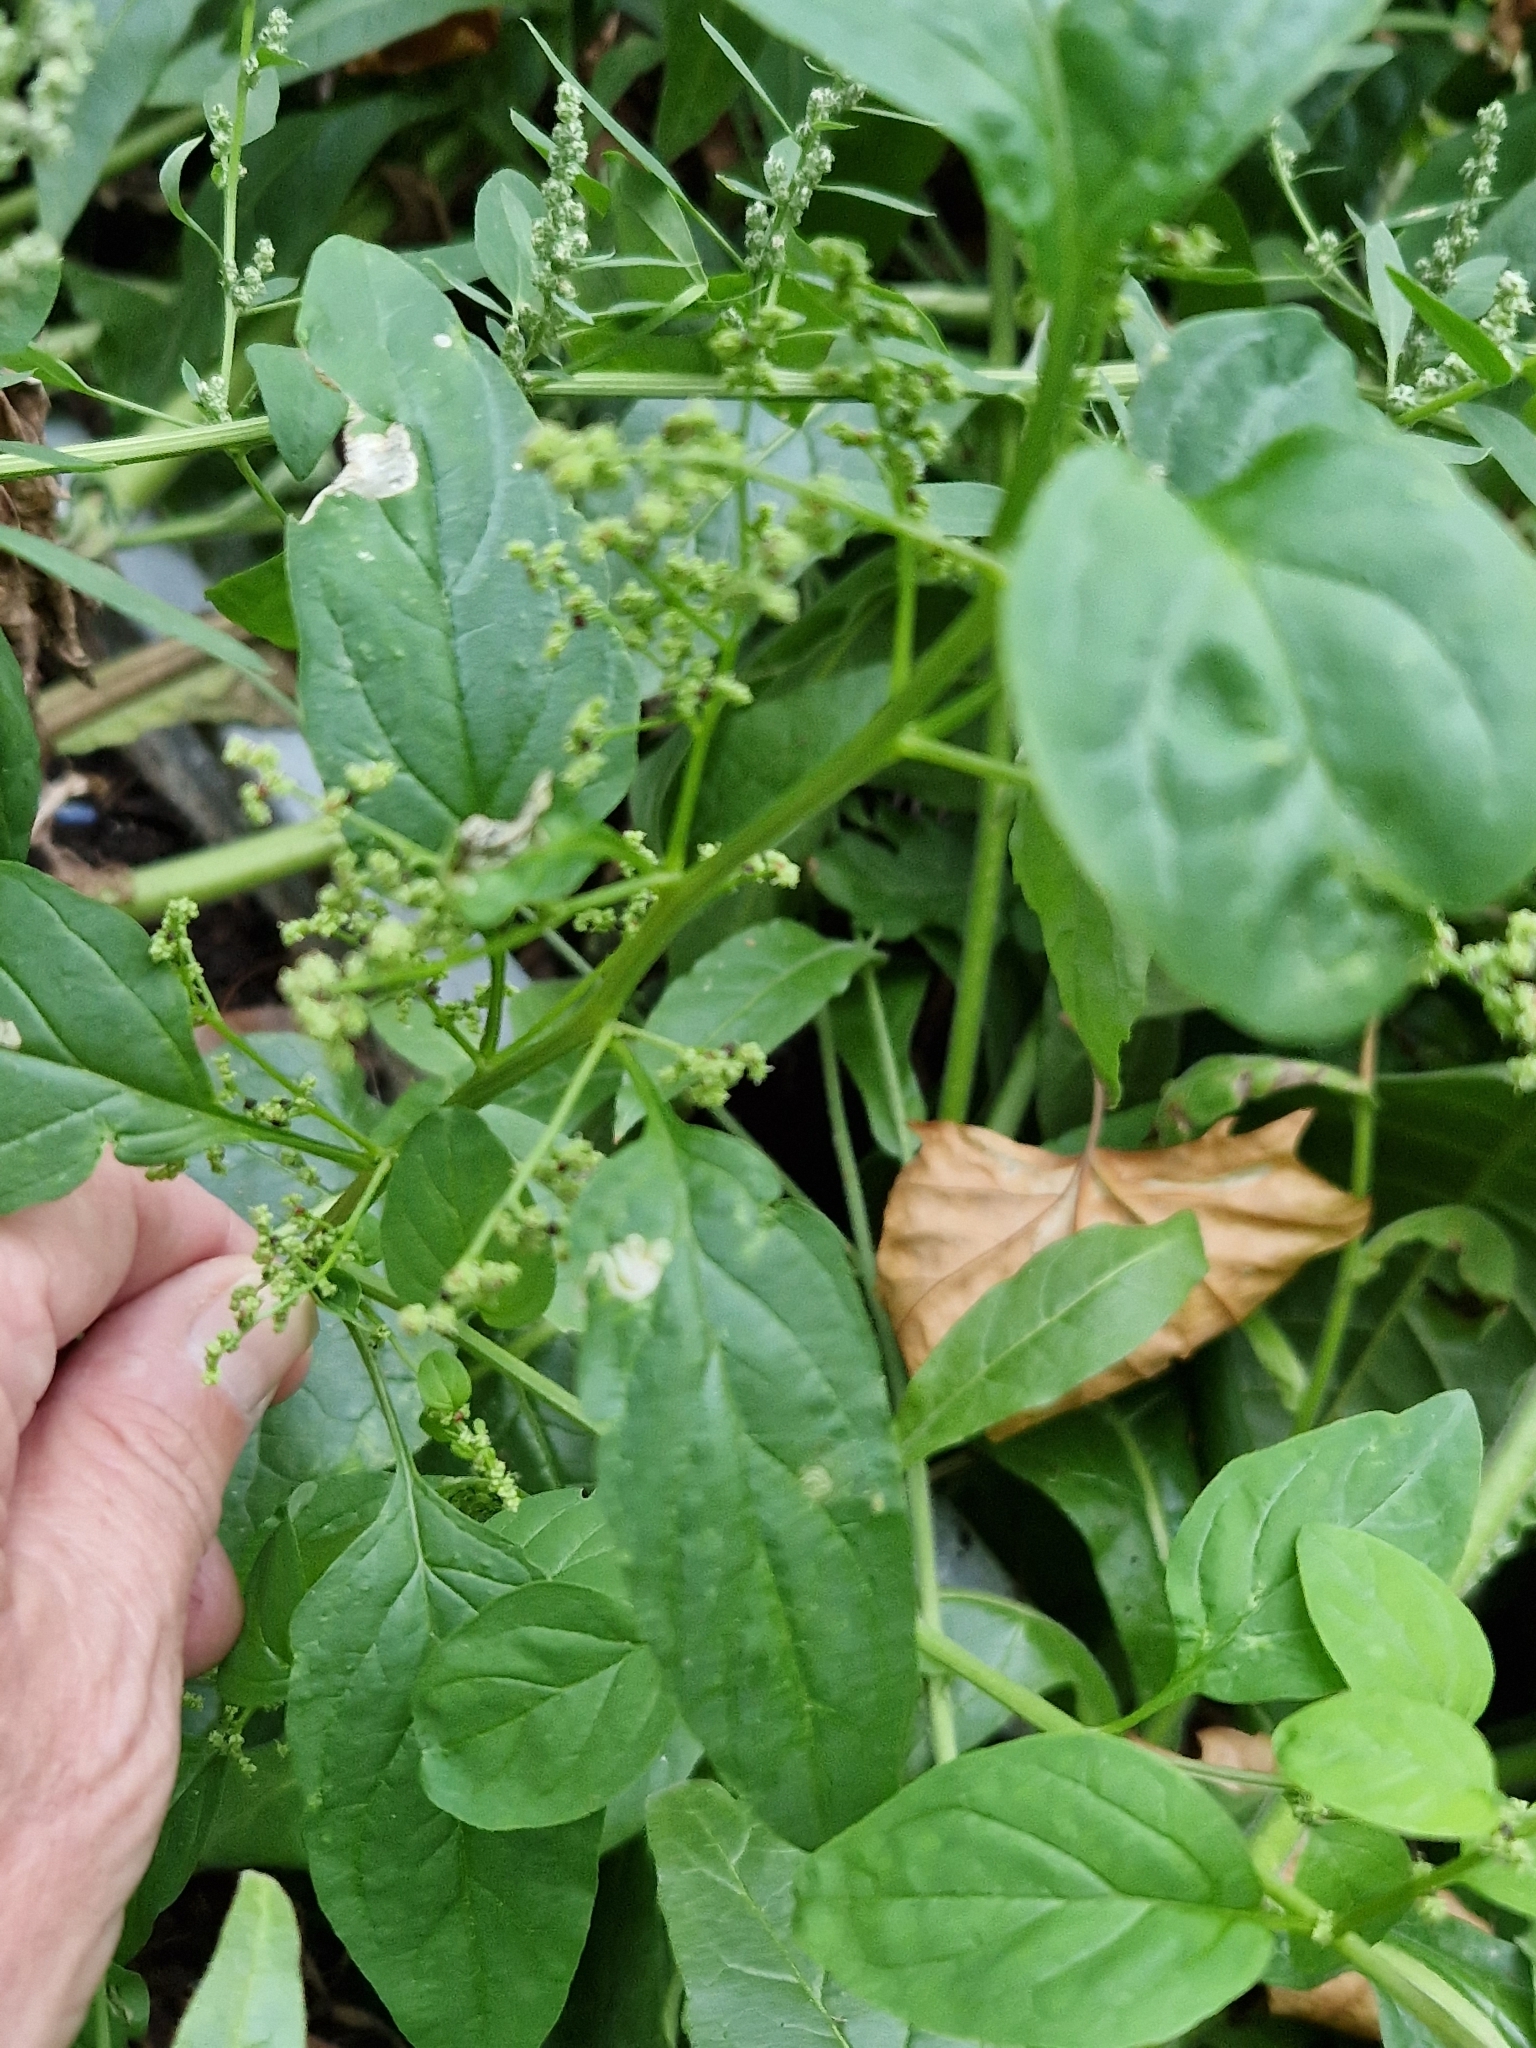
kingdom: Plantae
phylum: Tracheophyta
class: Magnoliopsida
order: Caryophyllales
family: Amaranthaceae
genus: Lipandra
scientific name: Lipandra polysperma
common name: Many-seed goosefoot
